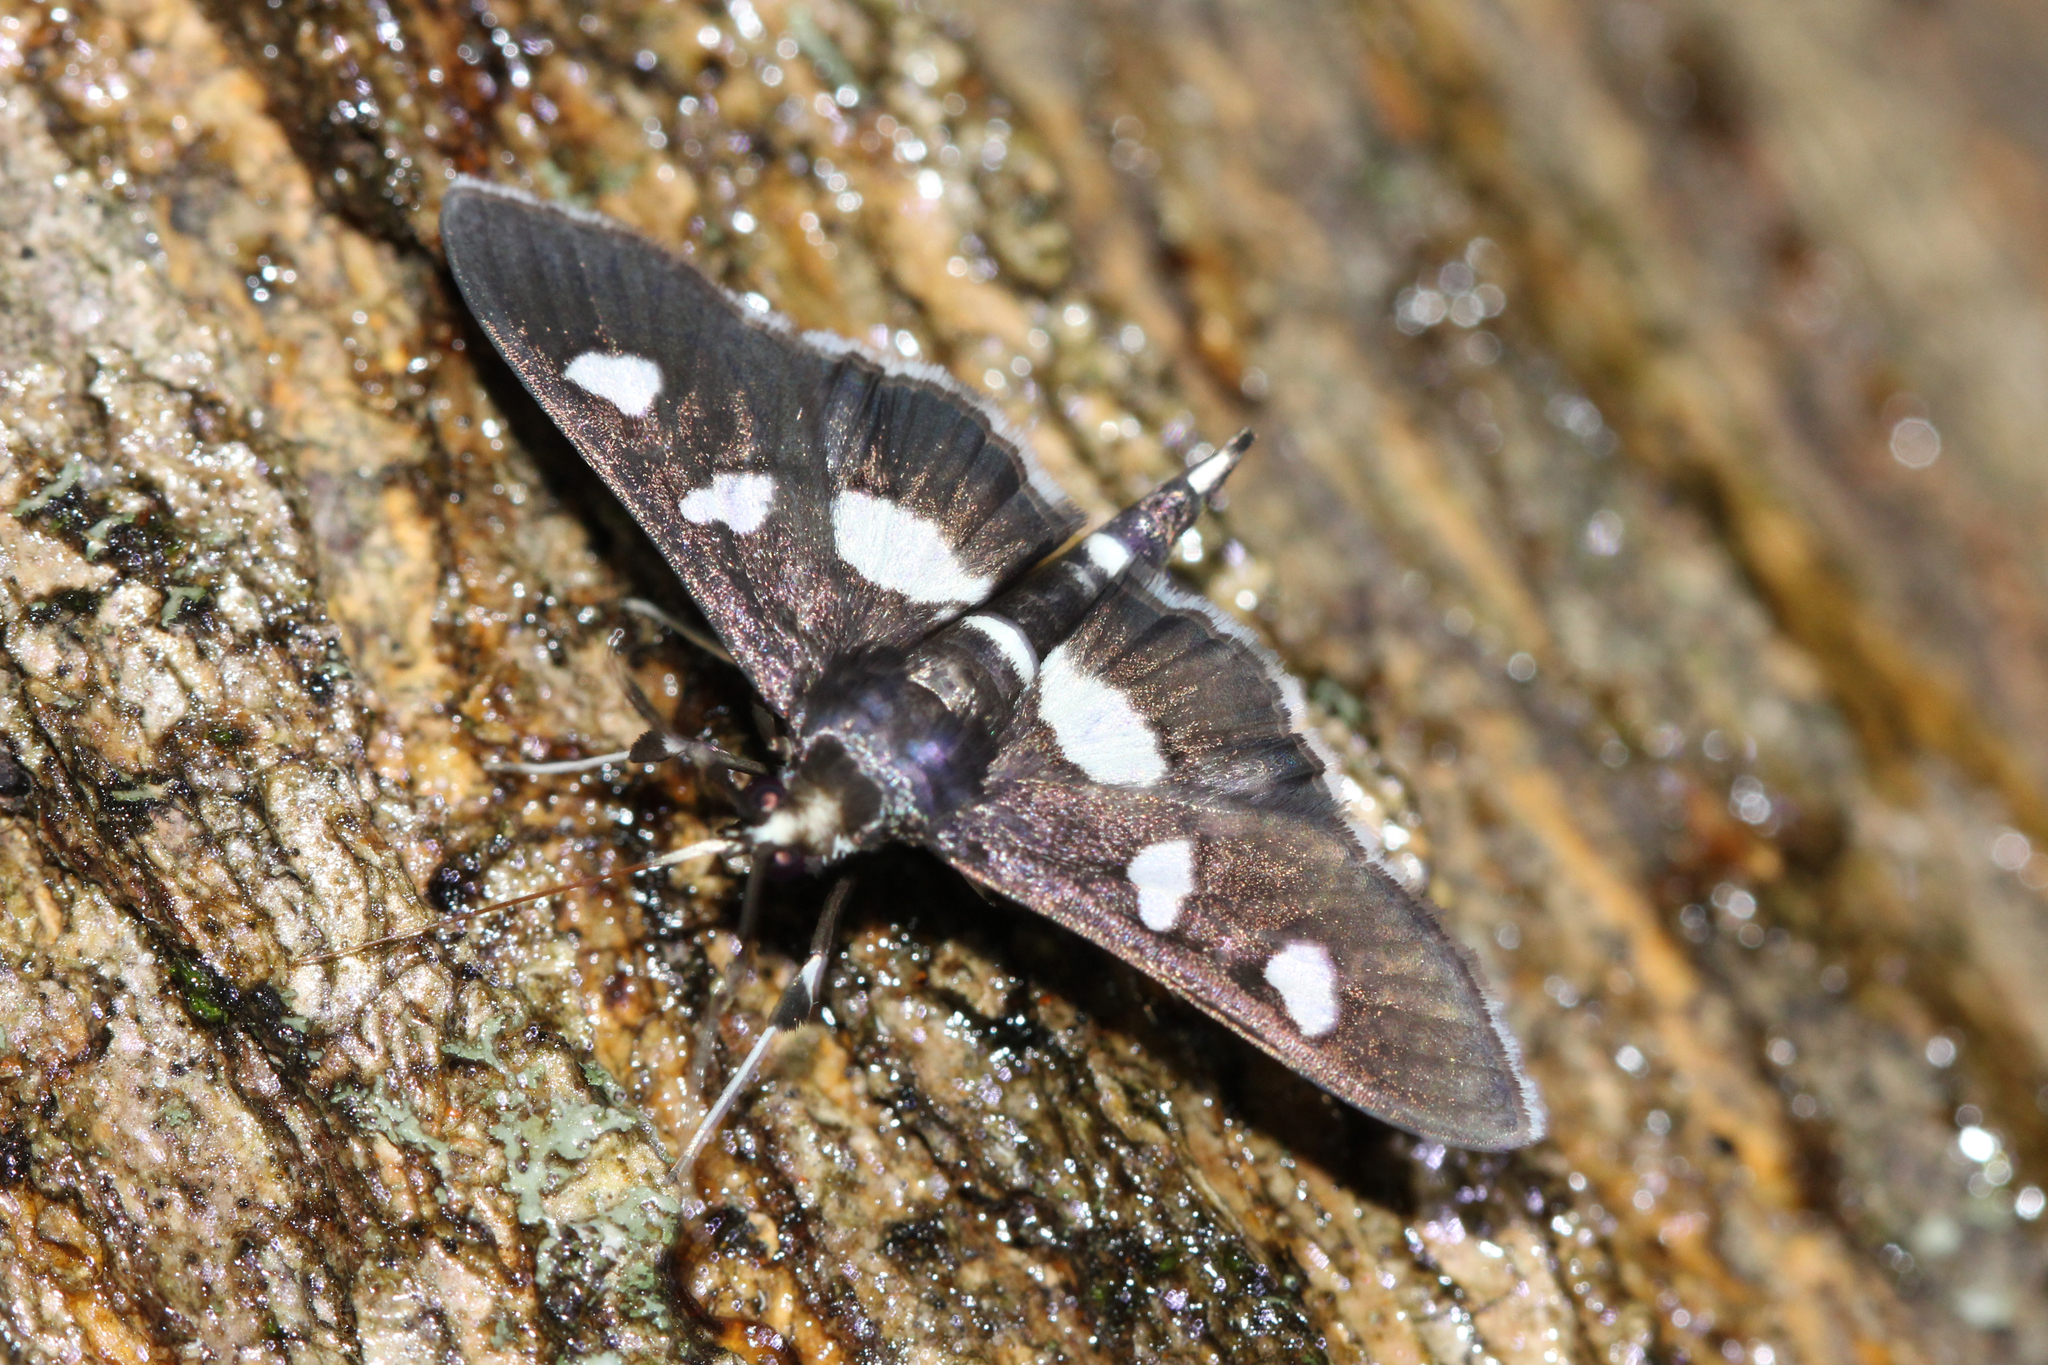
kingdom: Animalia
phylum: Arthropoda
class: Insecta
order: Lepidoptera
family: Crambidae
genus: Desmia
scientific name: Desmia
